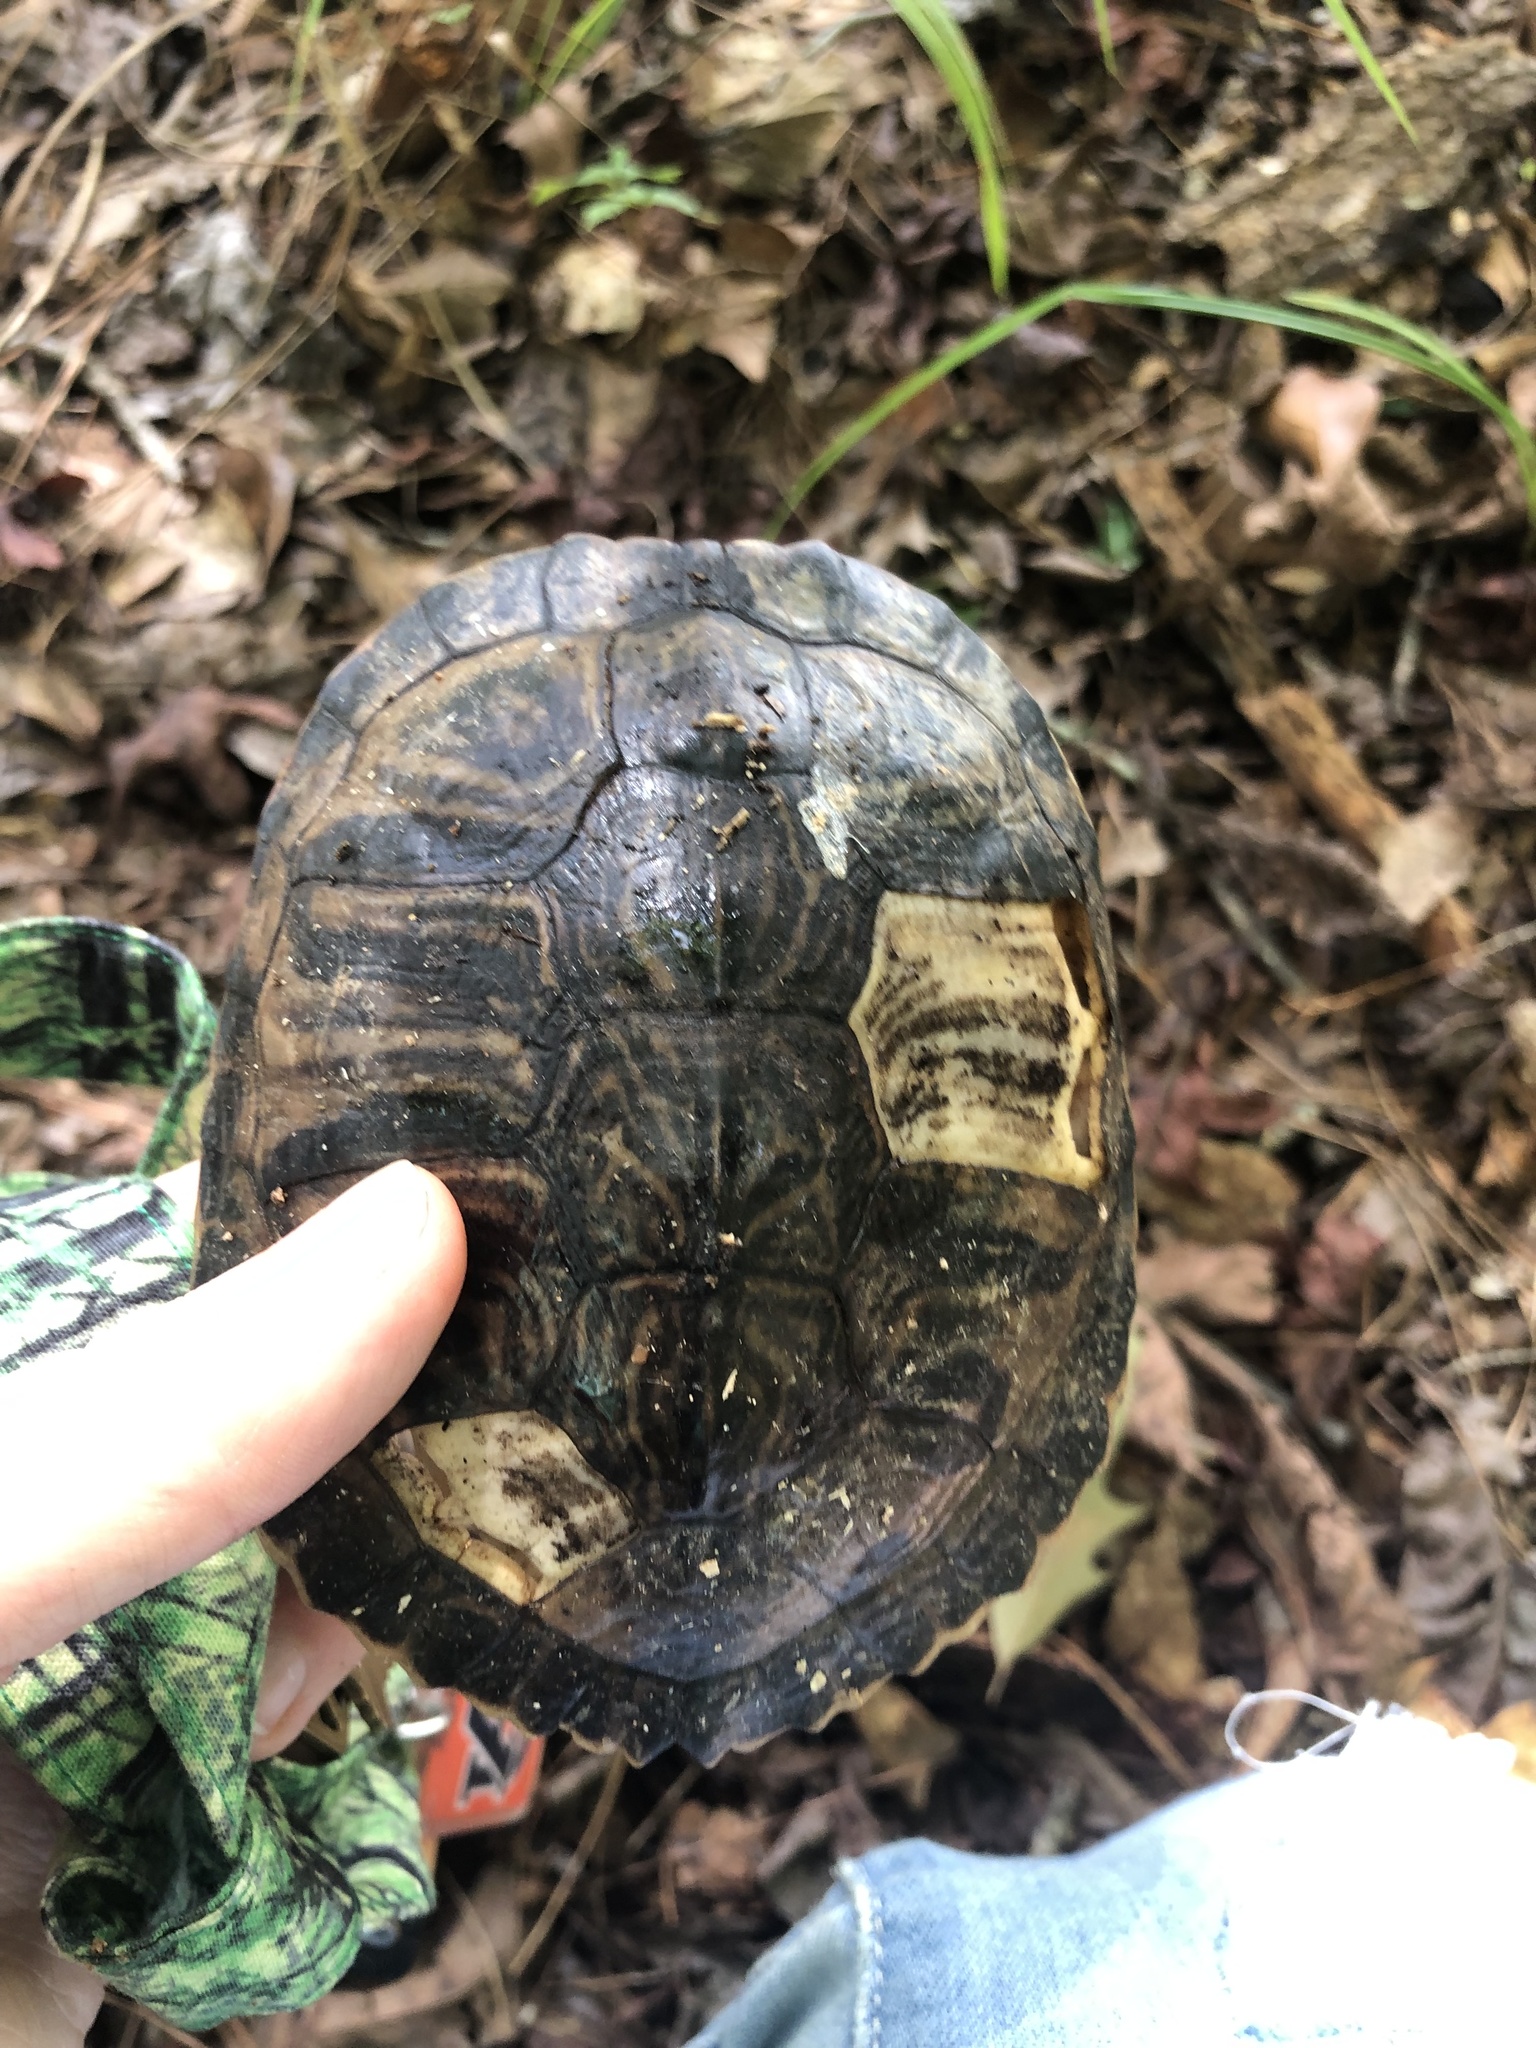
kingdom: Animalia
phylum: Chordata
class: Testudines
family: Emydidae
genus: Trachemys
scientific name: Trachemys scripta
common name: Slider
